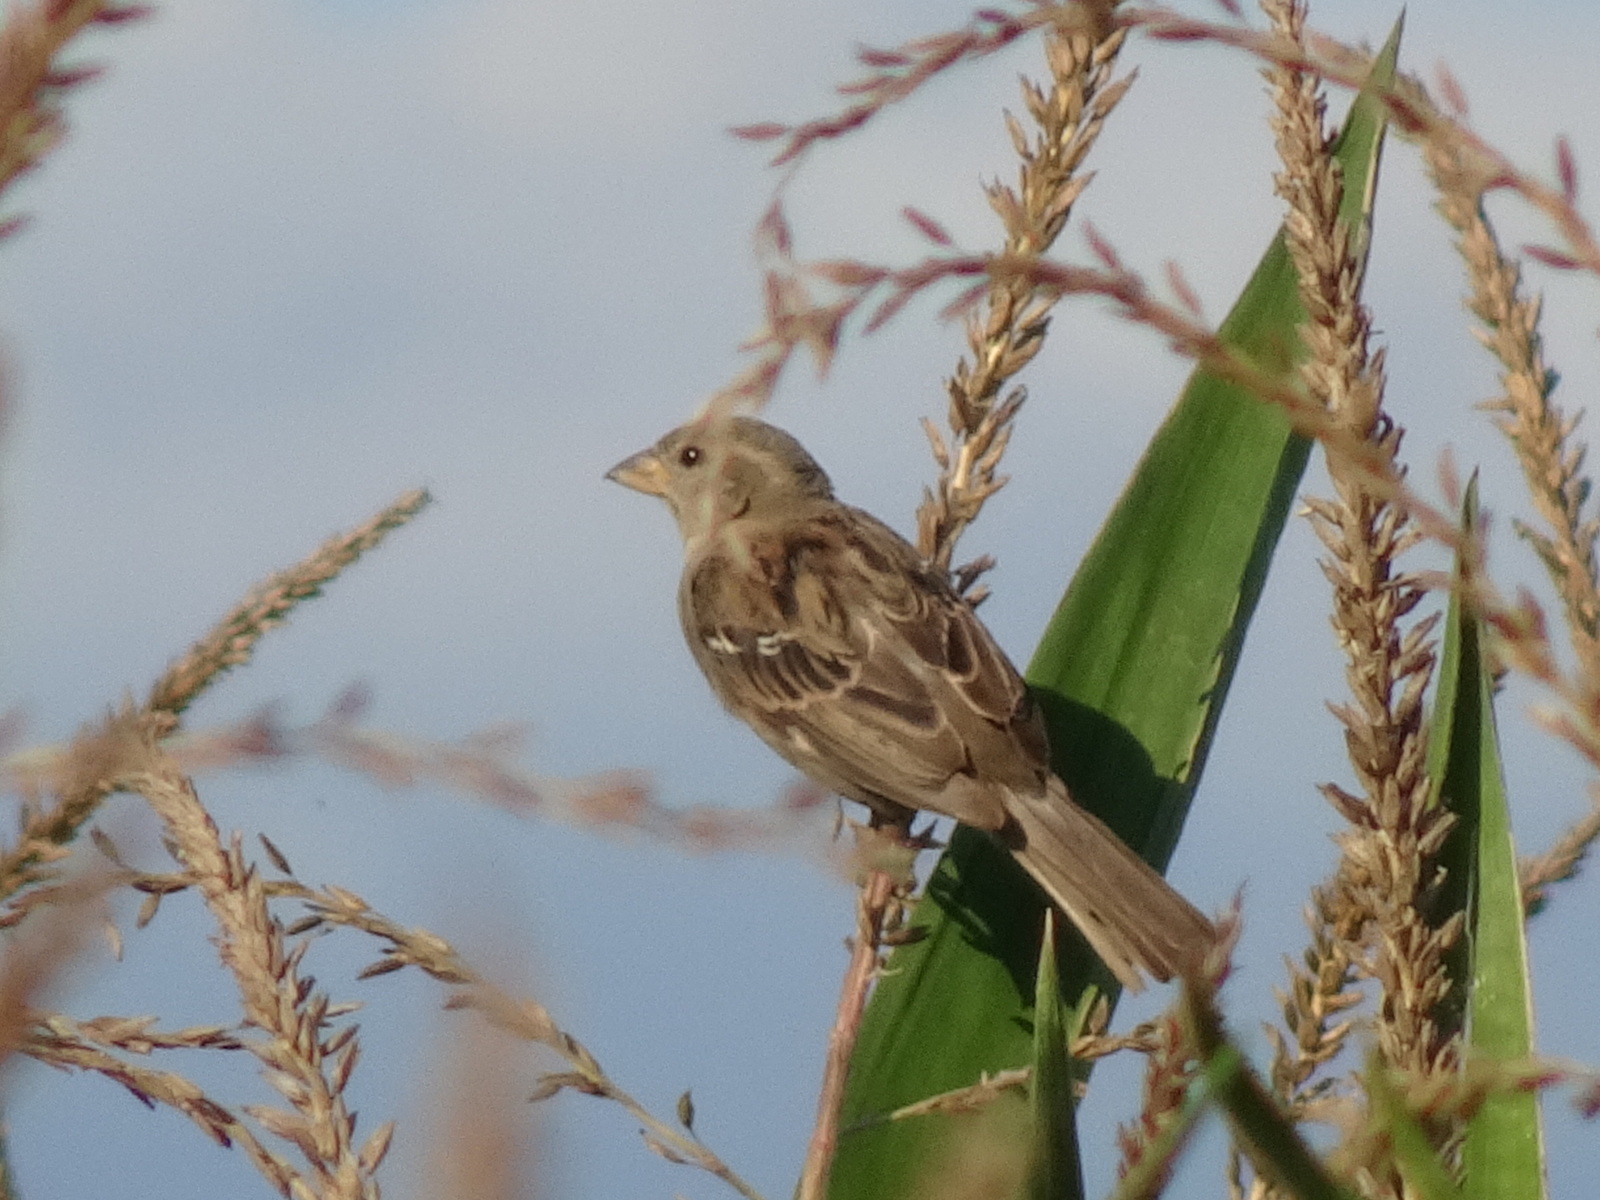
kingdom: Animalia
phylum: Chordata
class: Aves
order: Passeriformes
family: Passeridae
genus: Passer
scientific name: Passer domesticus
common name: House sparrow
